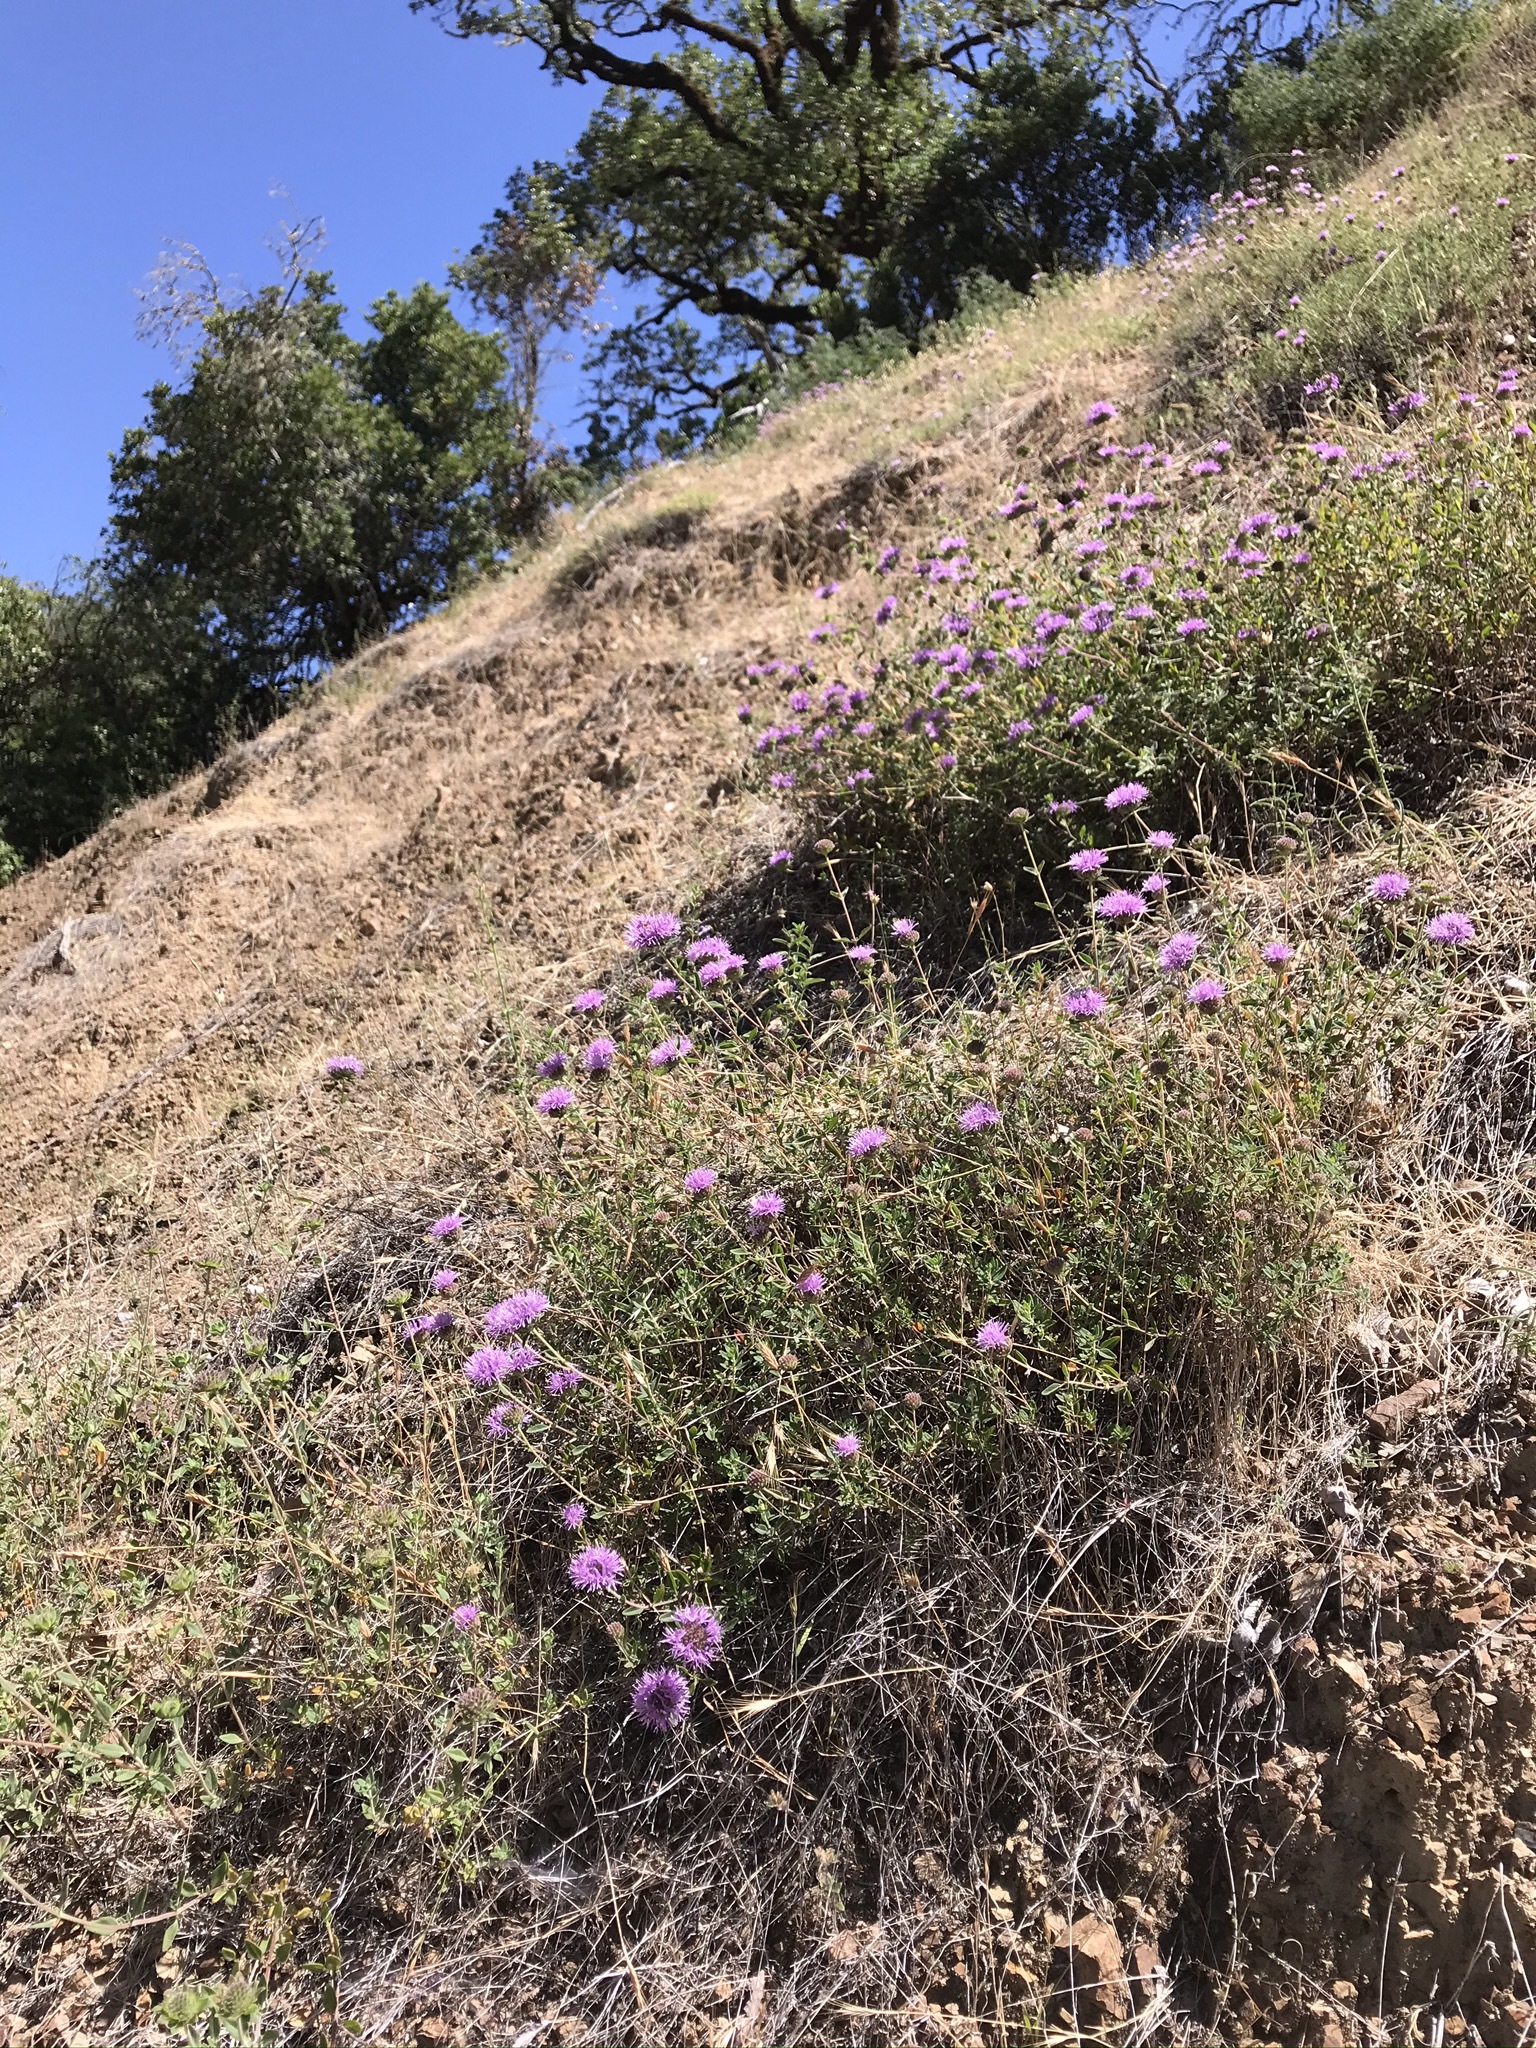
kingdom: Plantae
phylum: Tracheophyta
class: Magnoliopsida
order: Lamiales
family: Lamiaceae
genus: Monardella
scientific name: Monardella odoratissima
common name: Pacific monardella
